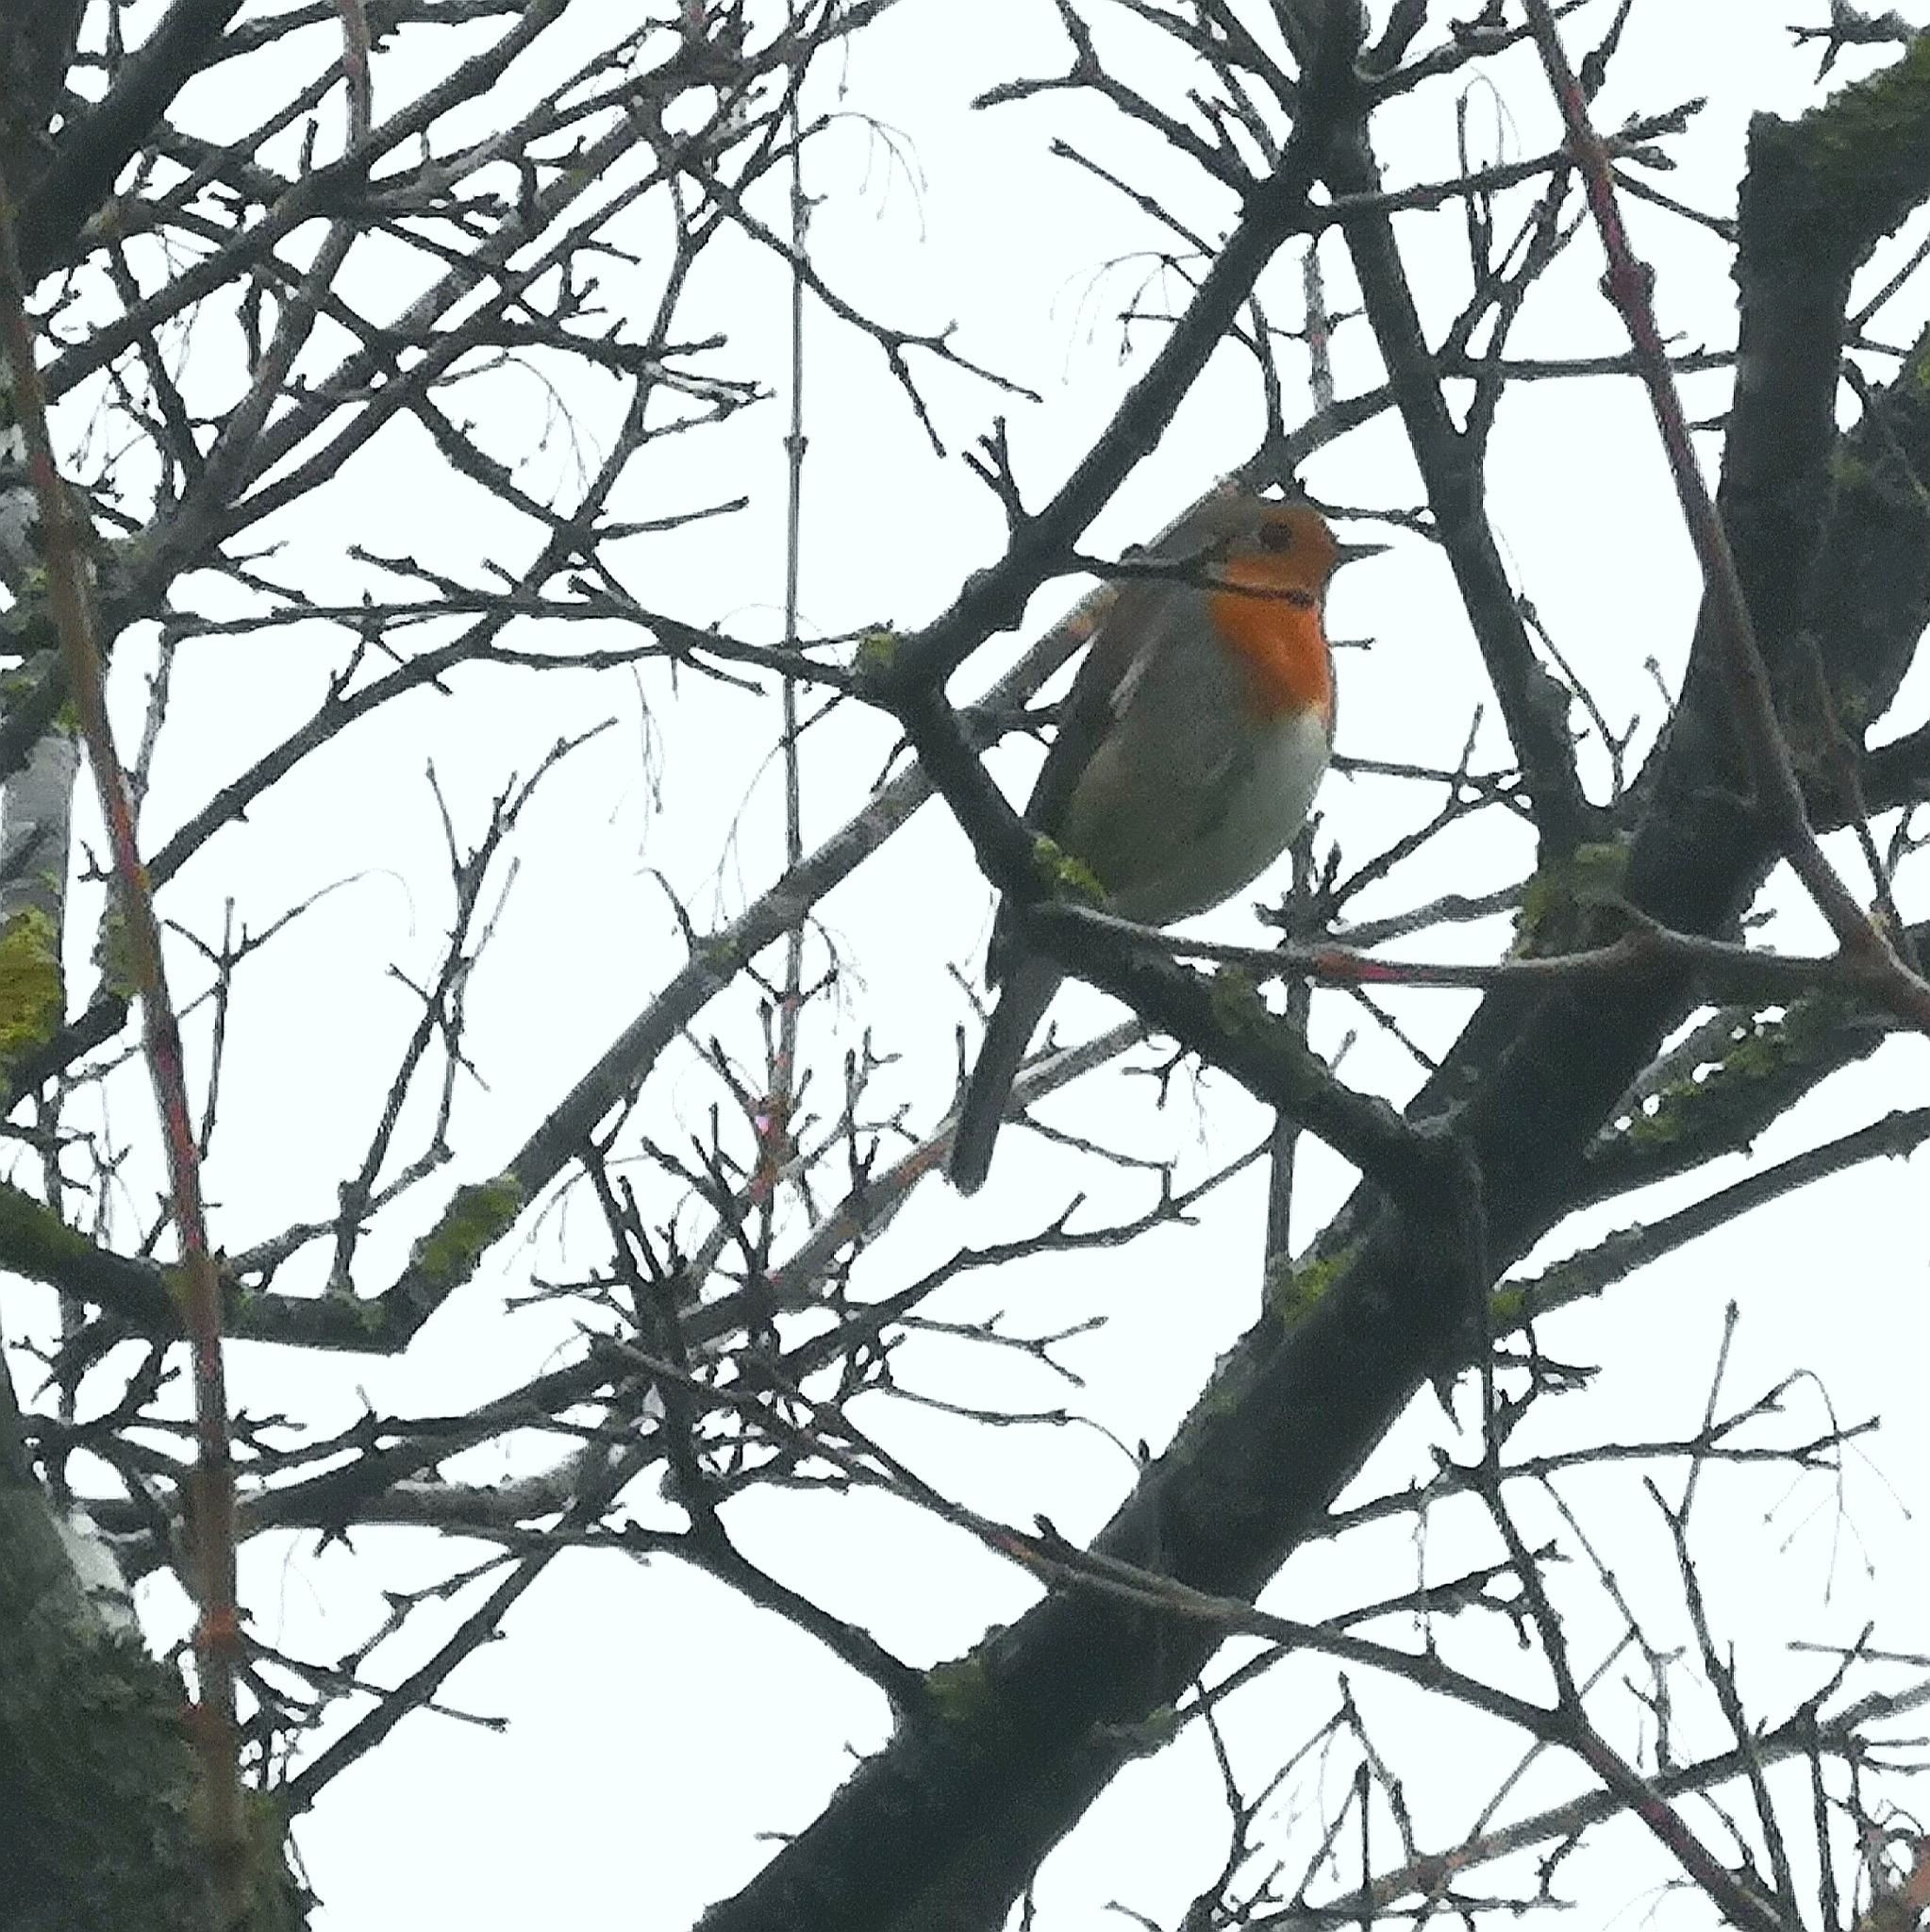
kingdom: Animalia
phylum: Chordata
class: Aves
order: Passeriformes
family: Muscicapidae
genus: Erithacus
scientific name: Erithacus rubecula
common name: European robin
